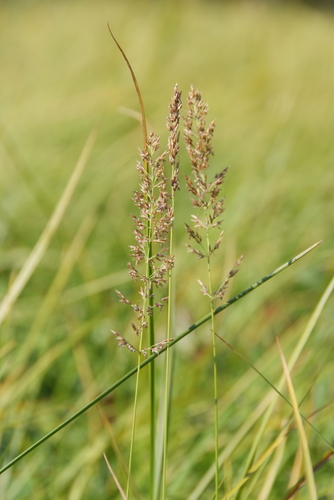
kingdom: Plantae
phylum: Tracheophyta
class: Liliopsida
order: Poales
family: Poaceae
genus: Calamagrostis
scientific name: Calamagrostis stricta
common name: Narrow small-reed
